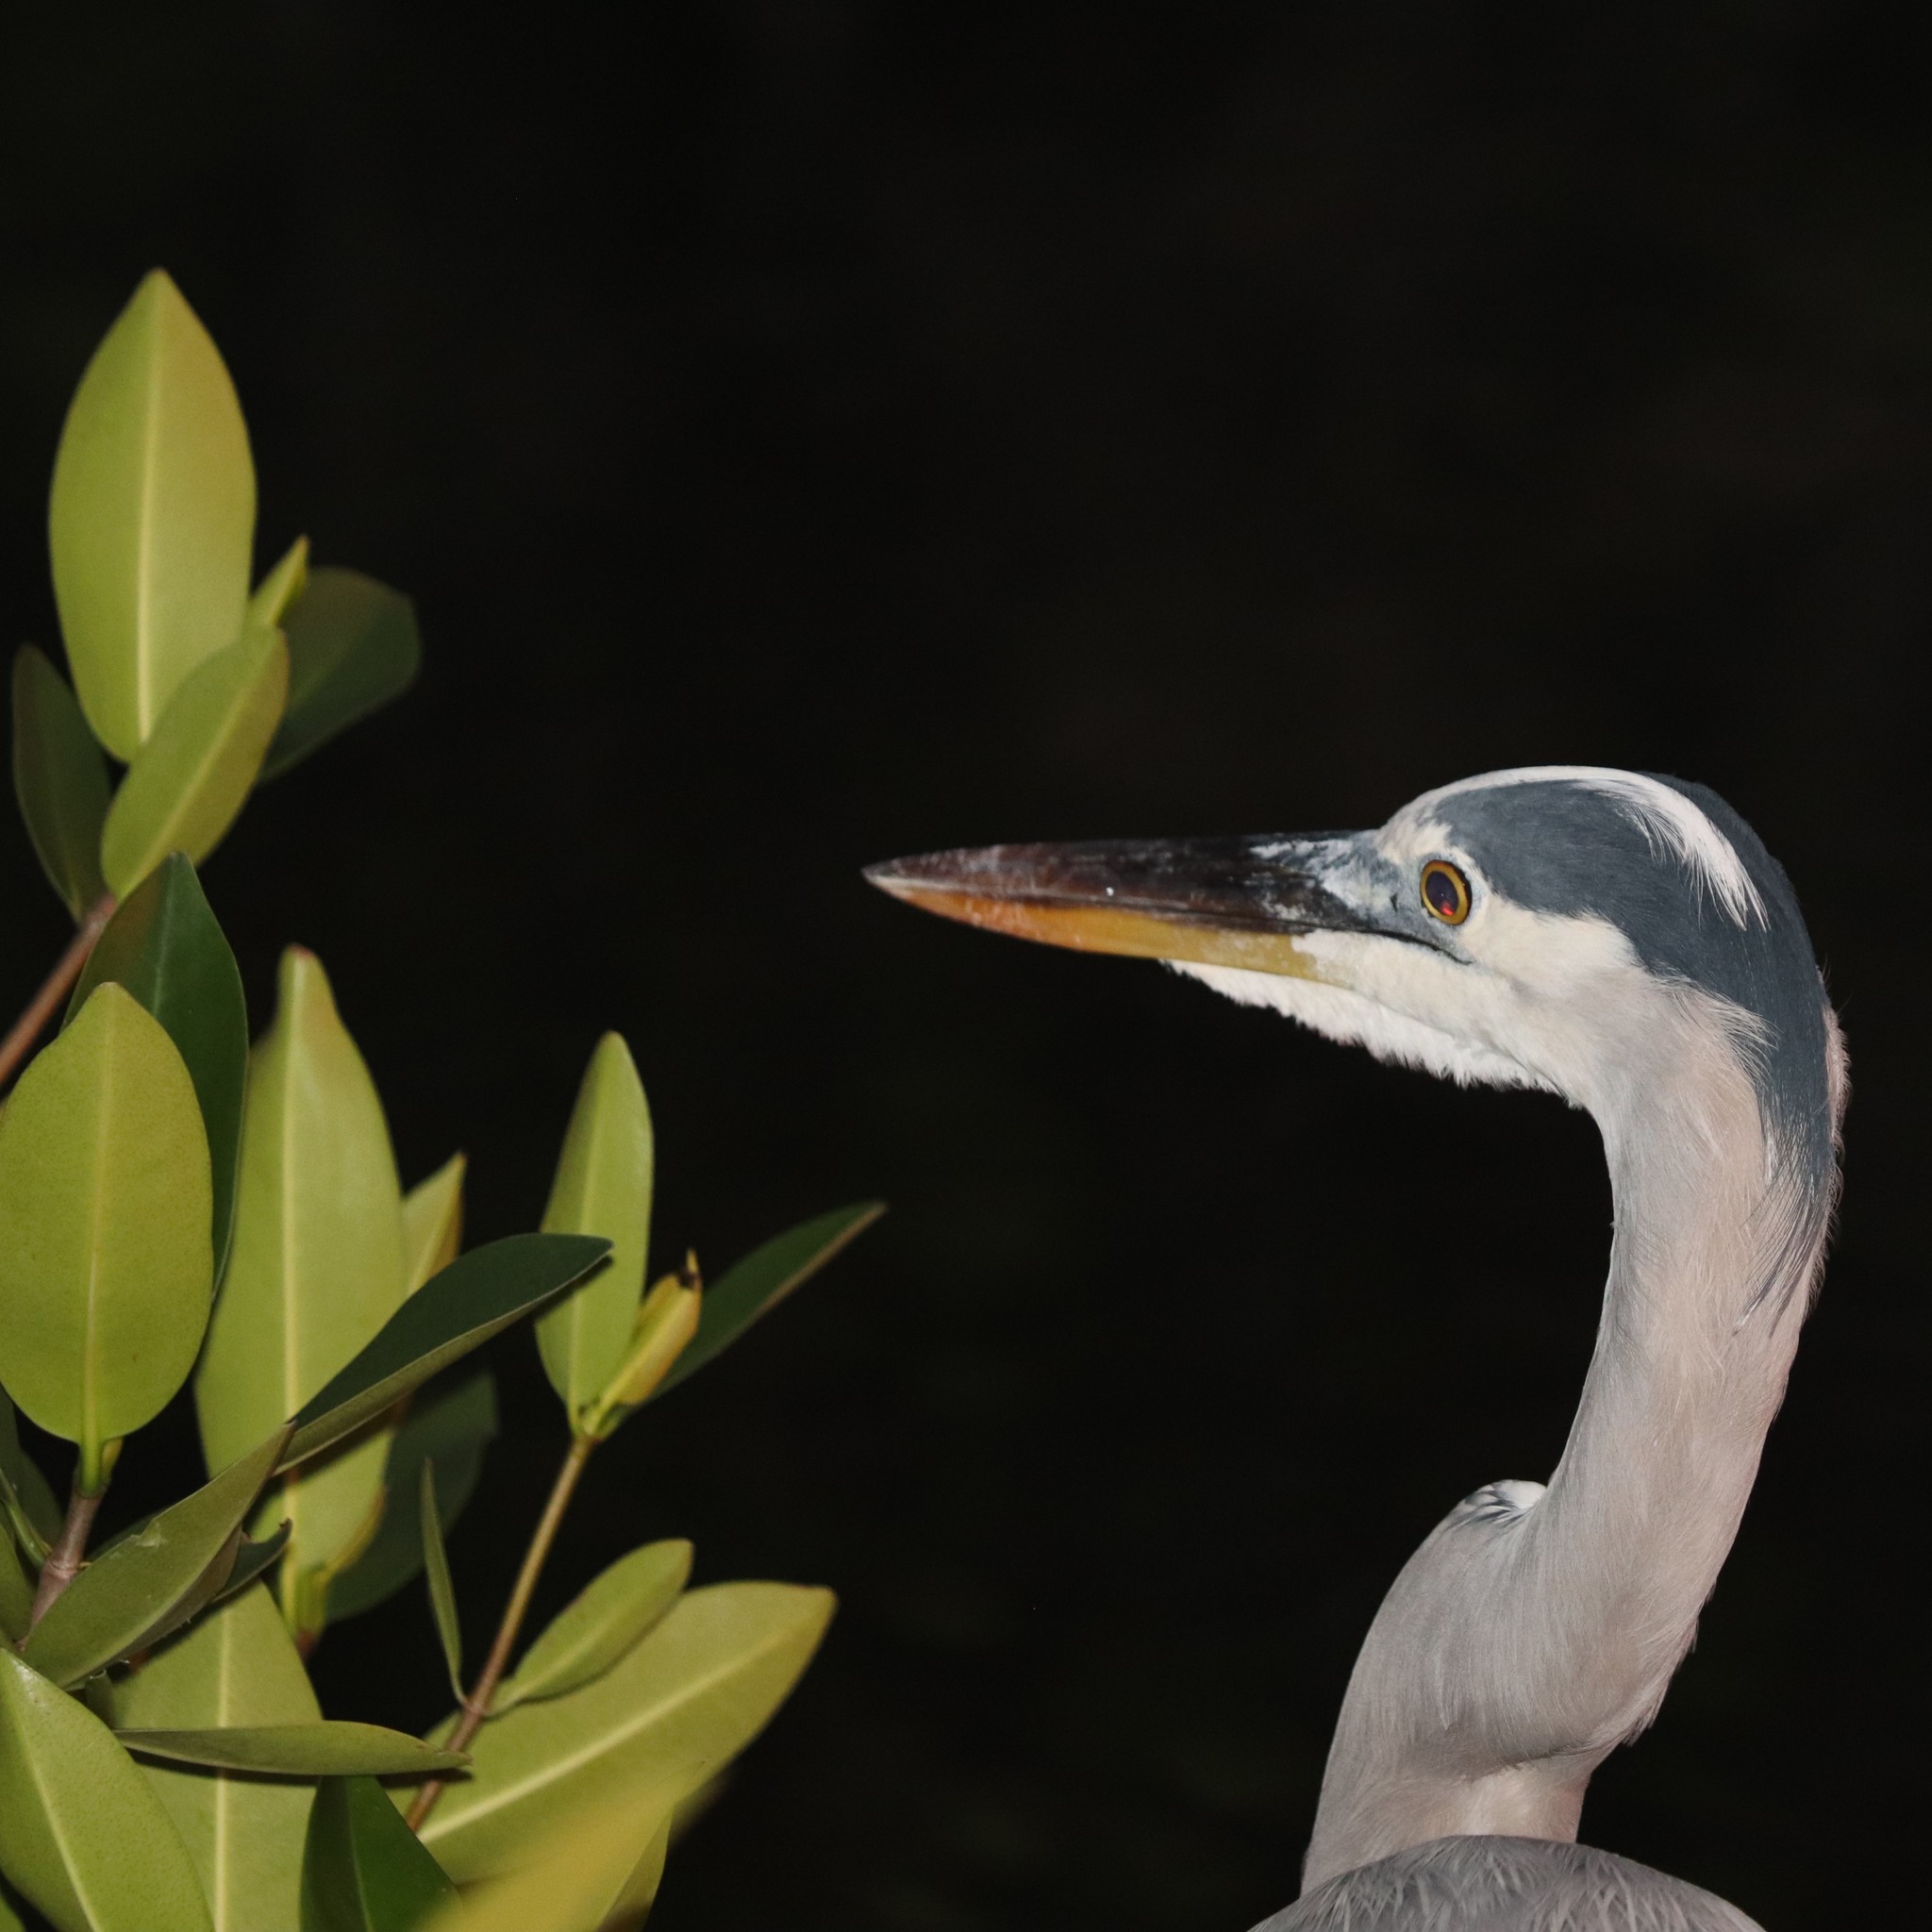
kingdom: Animalia
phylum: Chordata
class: Aves
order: Pelecaniformes
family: Ardeidae
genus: Ardea
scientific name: Ardea herodias
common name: Great blue heron
